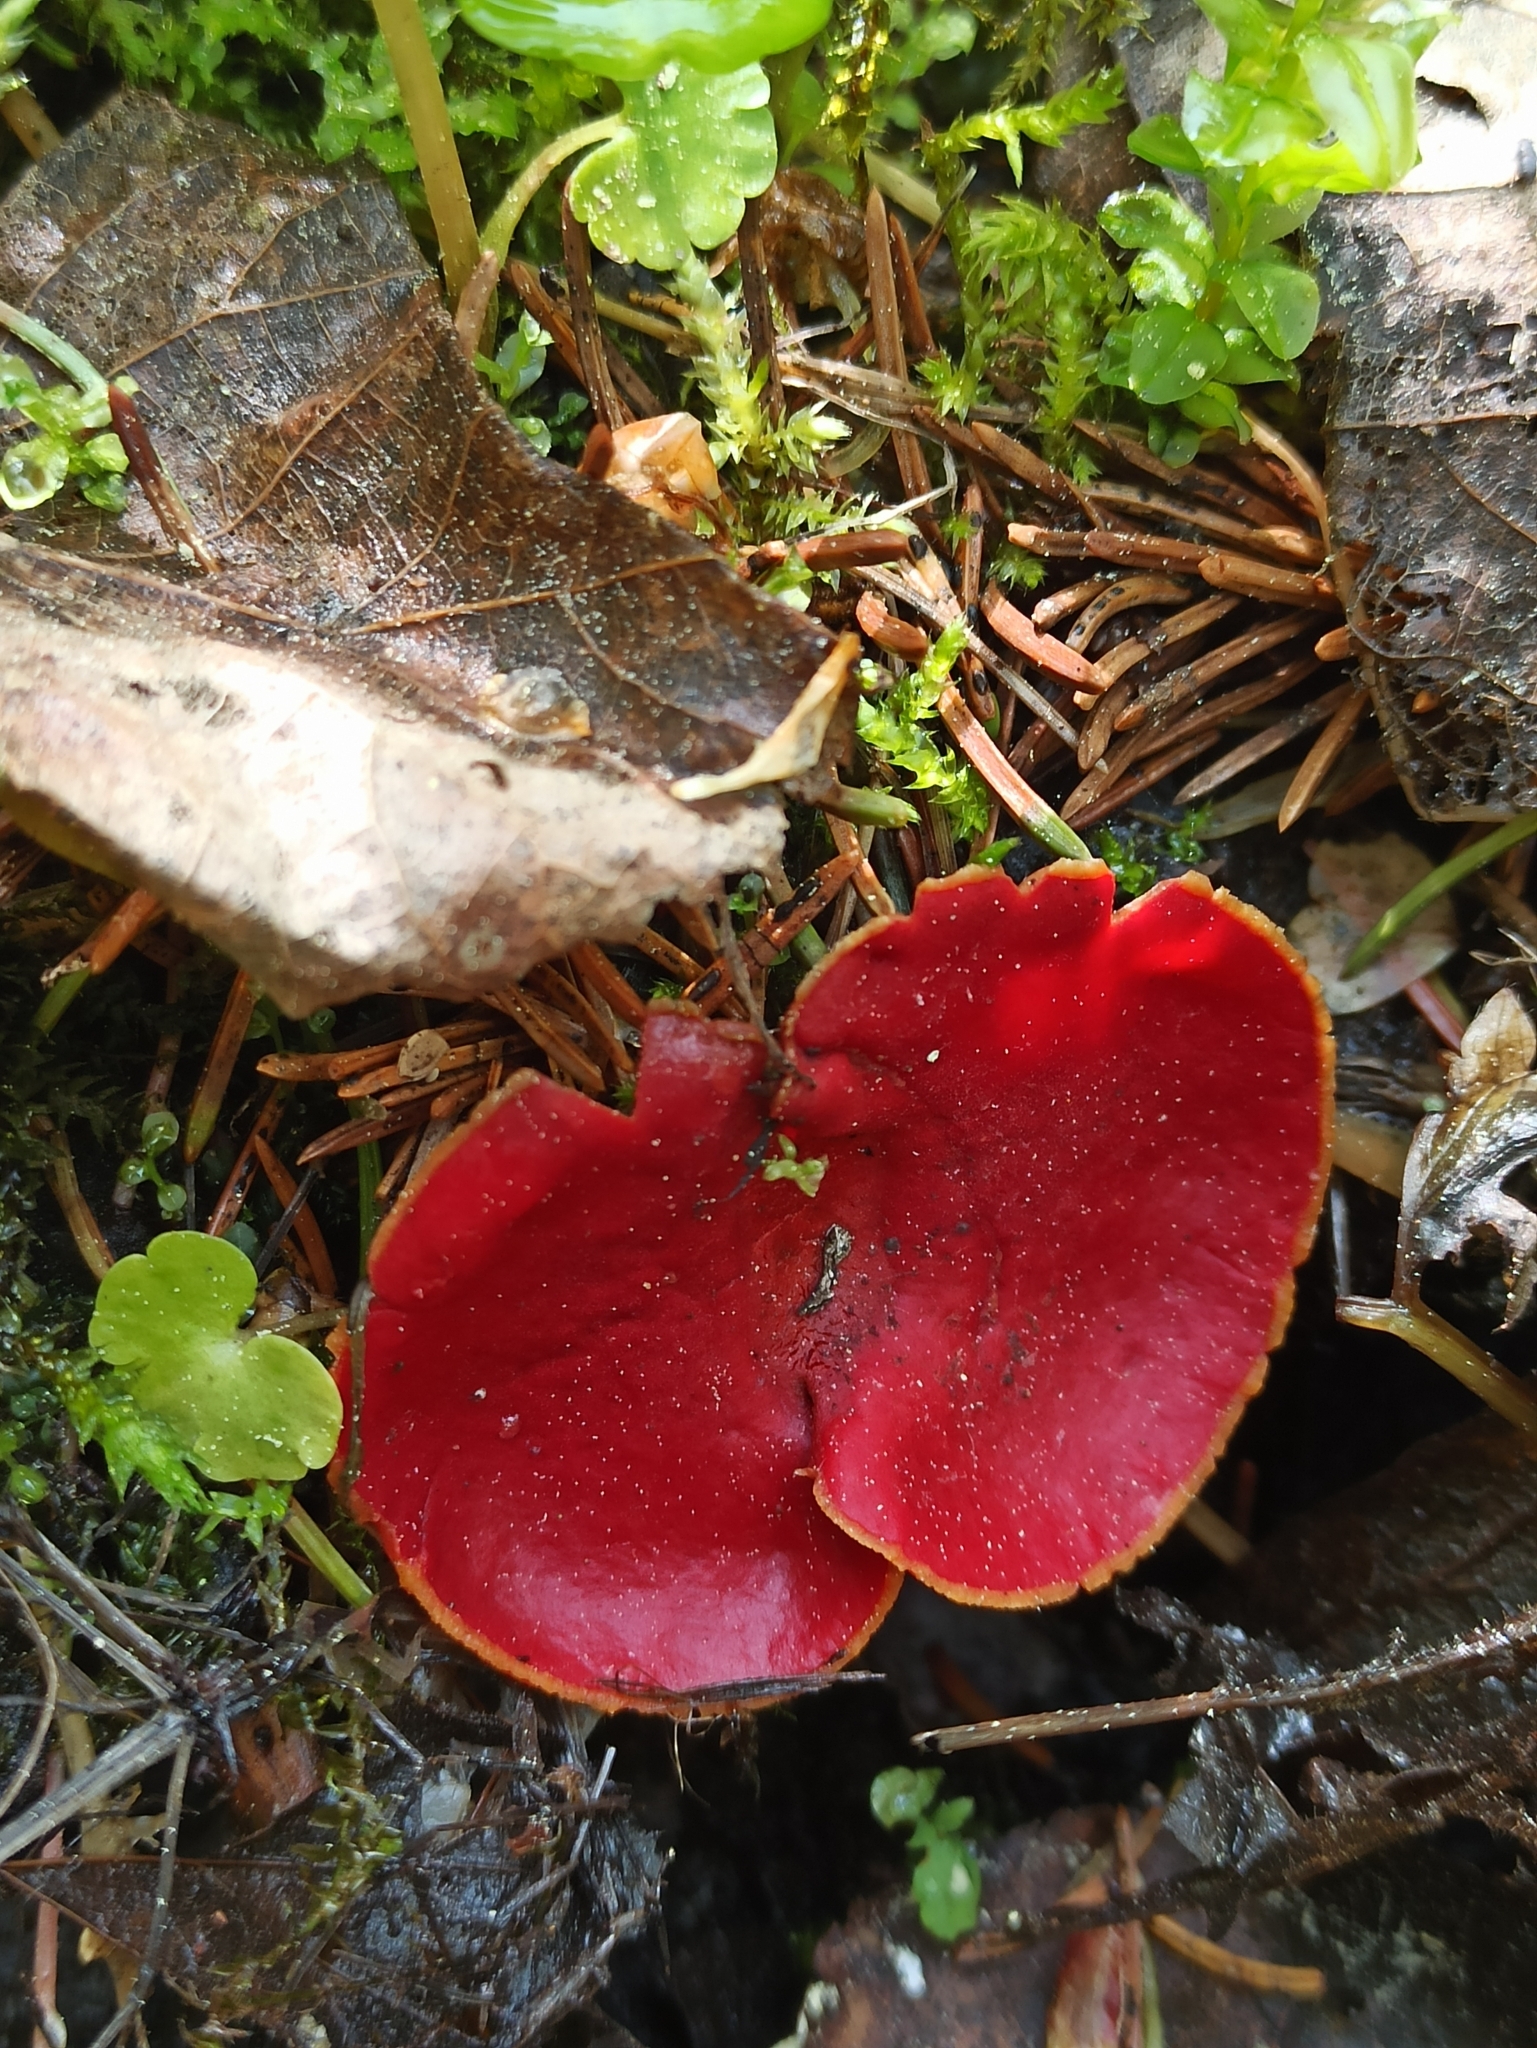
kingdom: Fungi
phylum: Ascomycota
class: Pezizomycetes
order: Pezizales
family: Sarcoscyphaceae
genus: Sarcoscypha
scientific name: Sarcoscypha austriaca
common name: Scarlet elfcup
